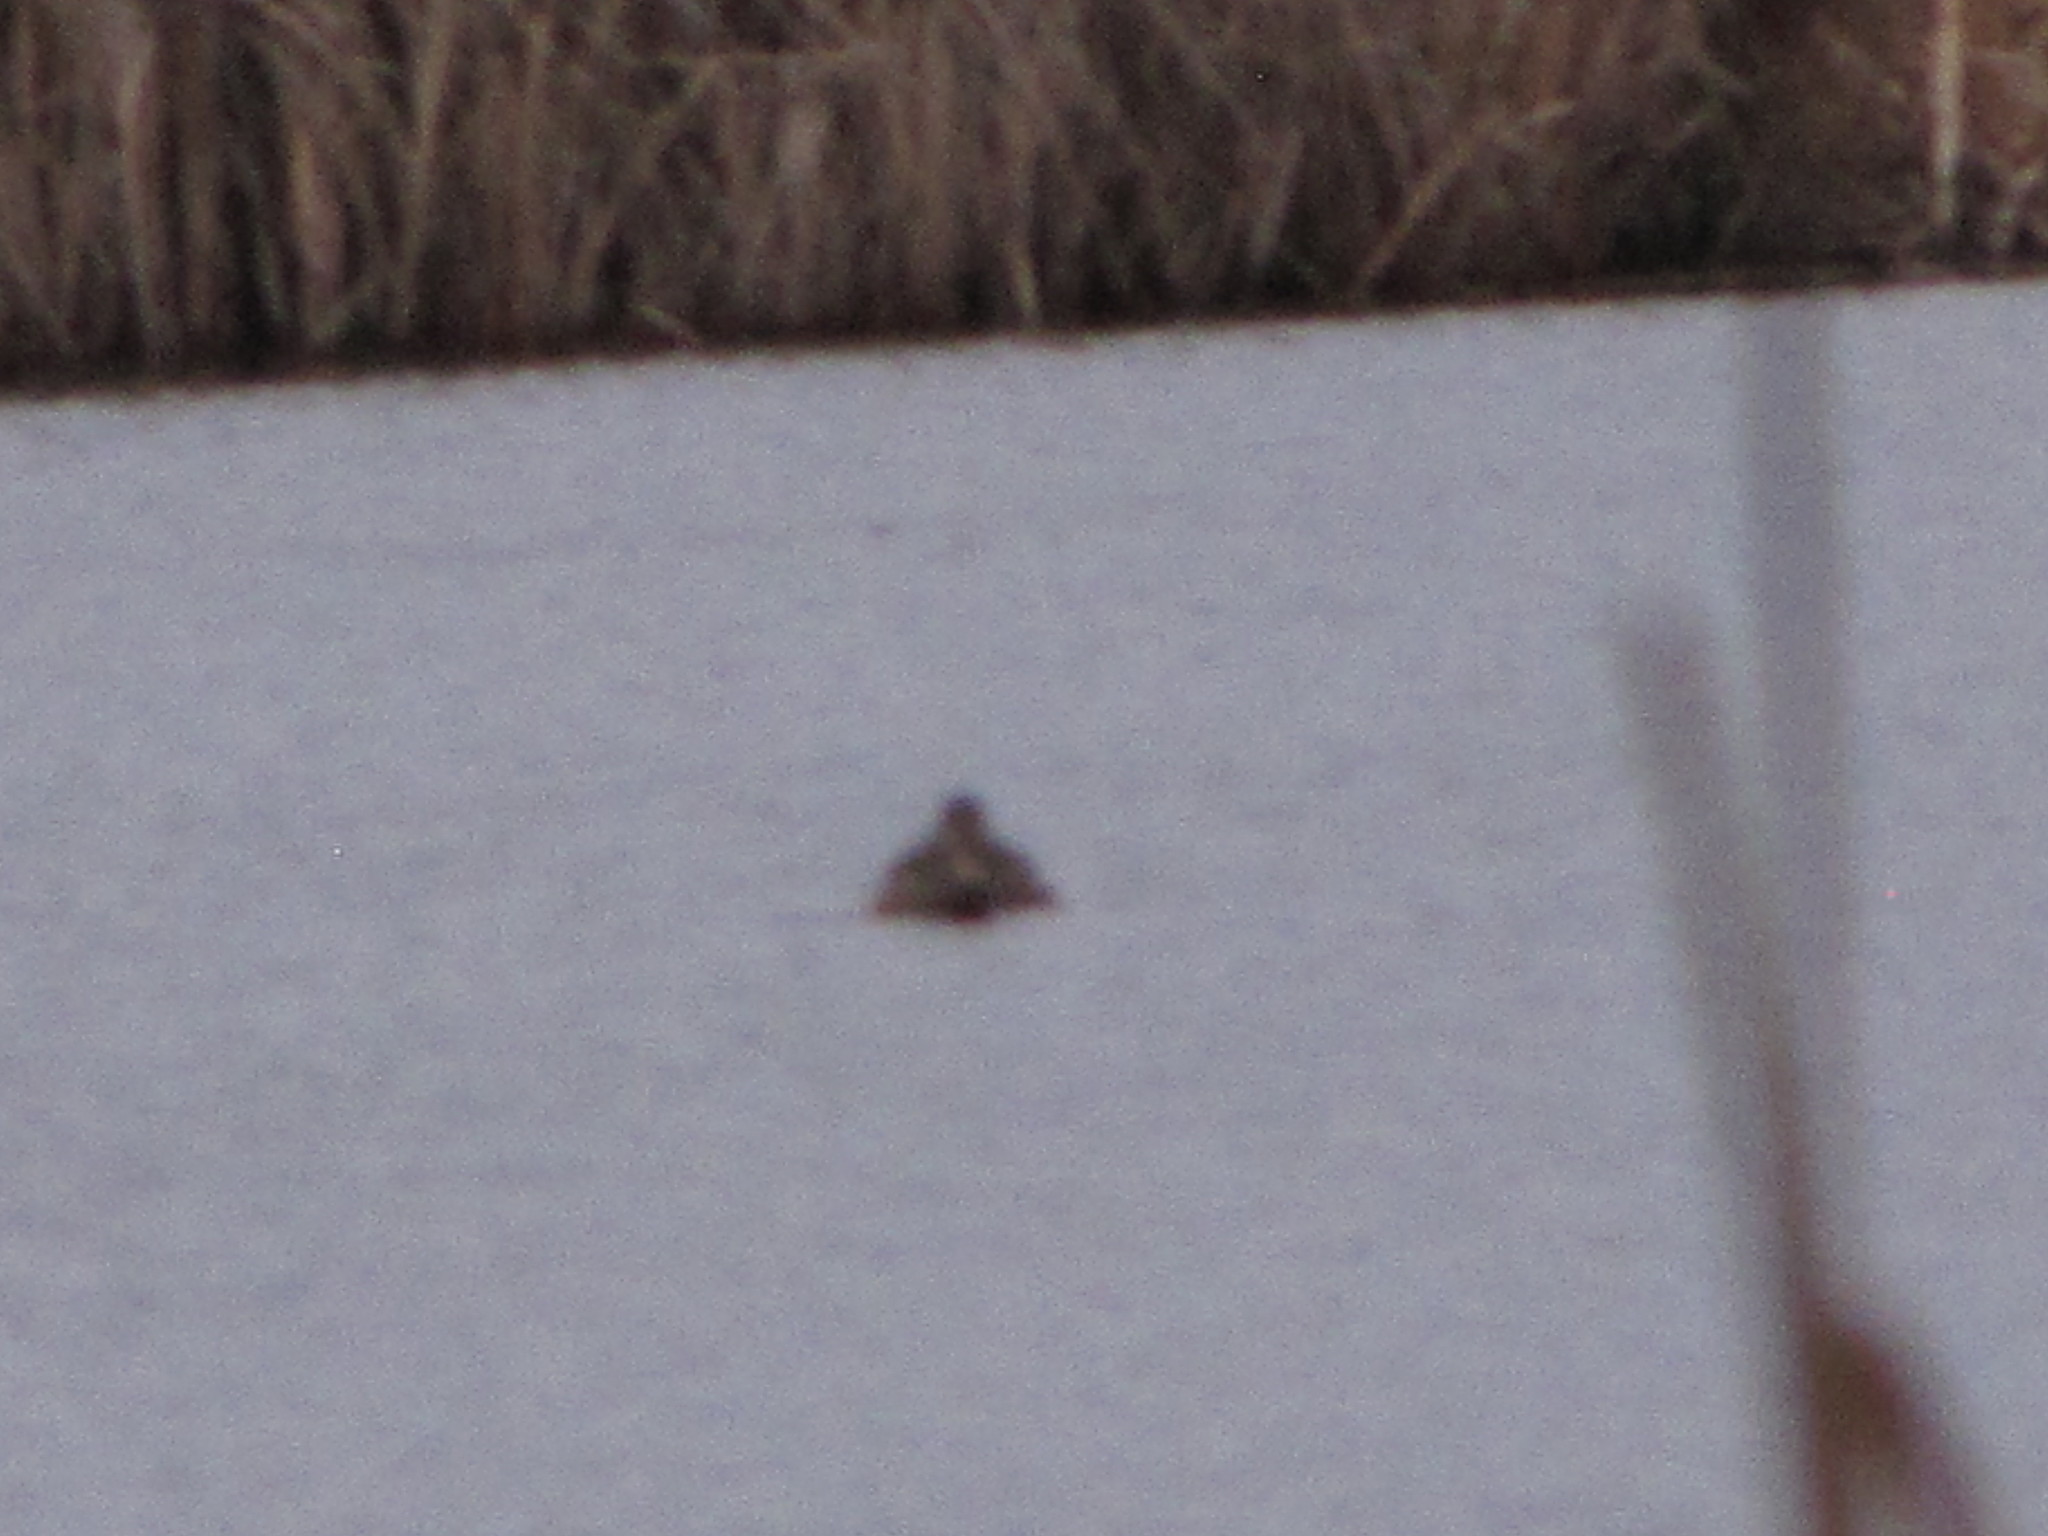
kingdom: Animalia
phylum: Chordata
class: Aves
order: Anseriformes
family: Anatidae
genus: Anas
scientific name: Anas platyrhynchos
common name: Mallard
